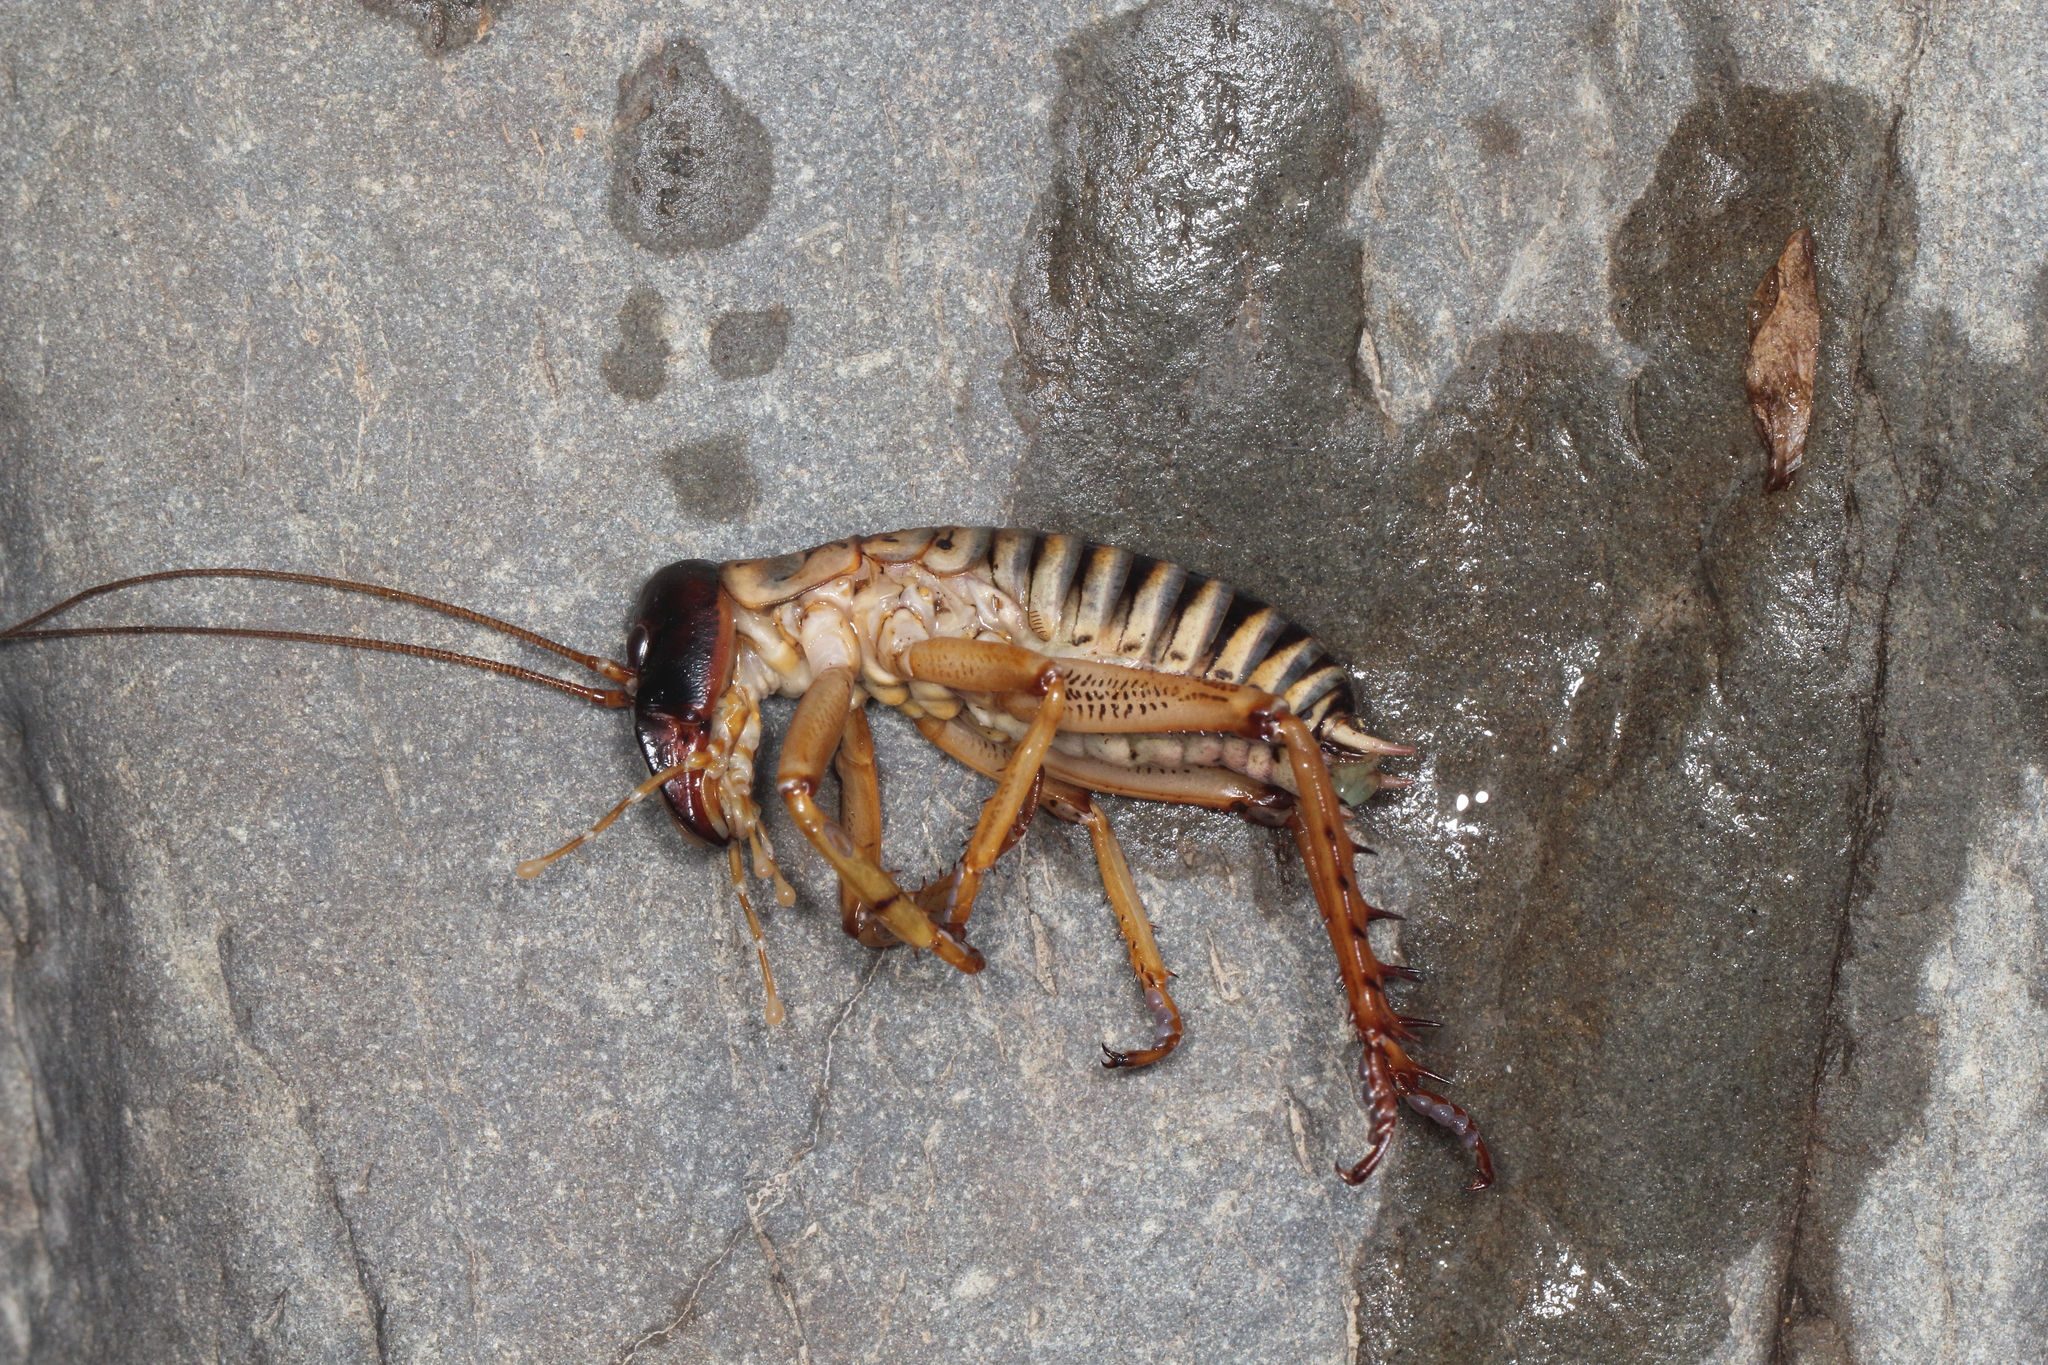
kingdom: Animalia
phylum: Arthropoda
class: Insecta
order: Orthoptera
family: Anostostomatidae
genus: Hemideina
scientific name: Hemideina femorata
